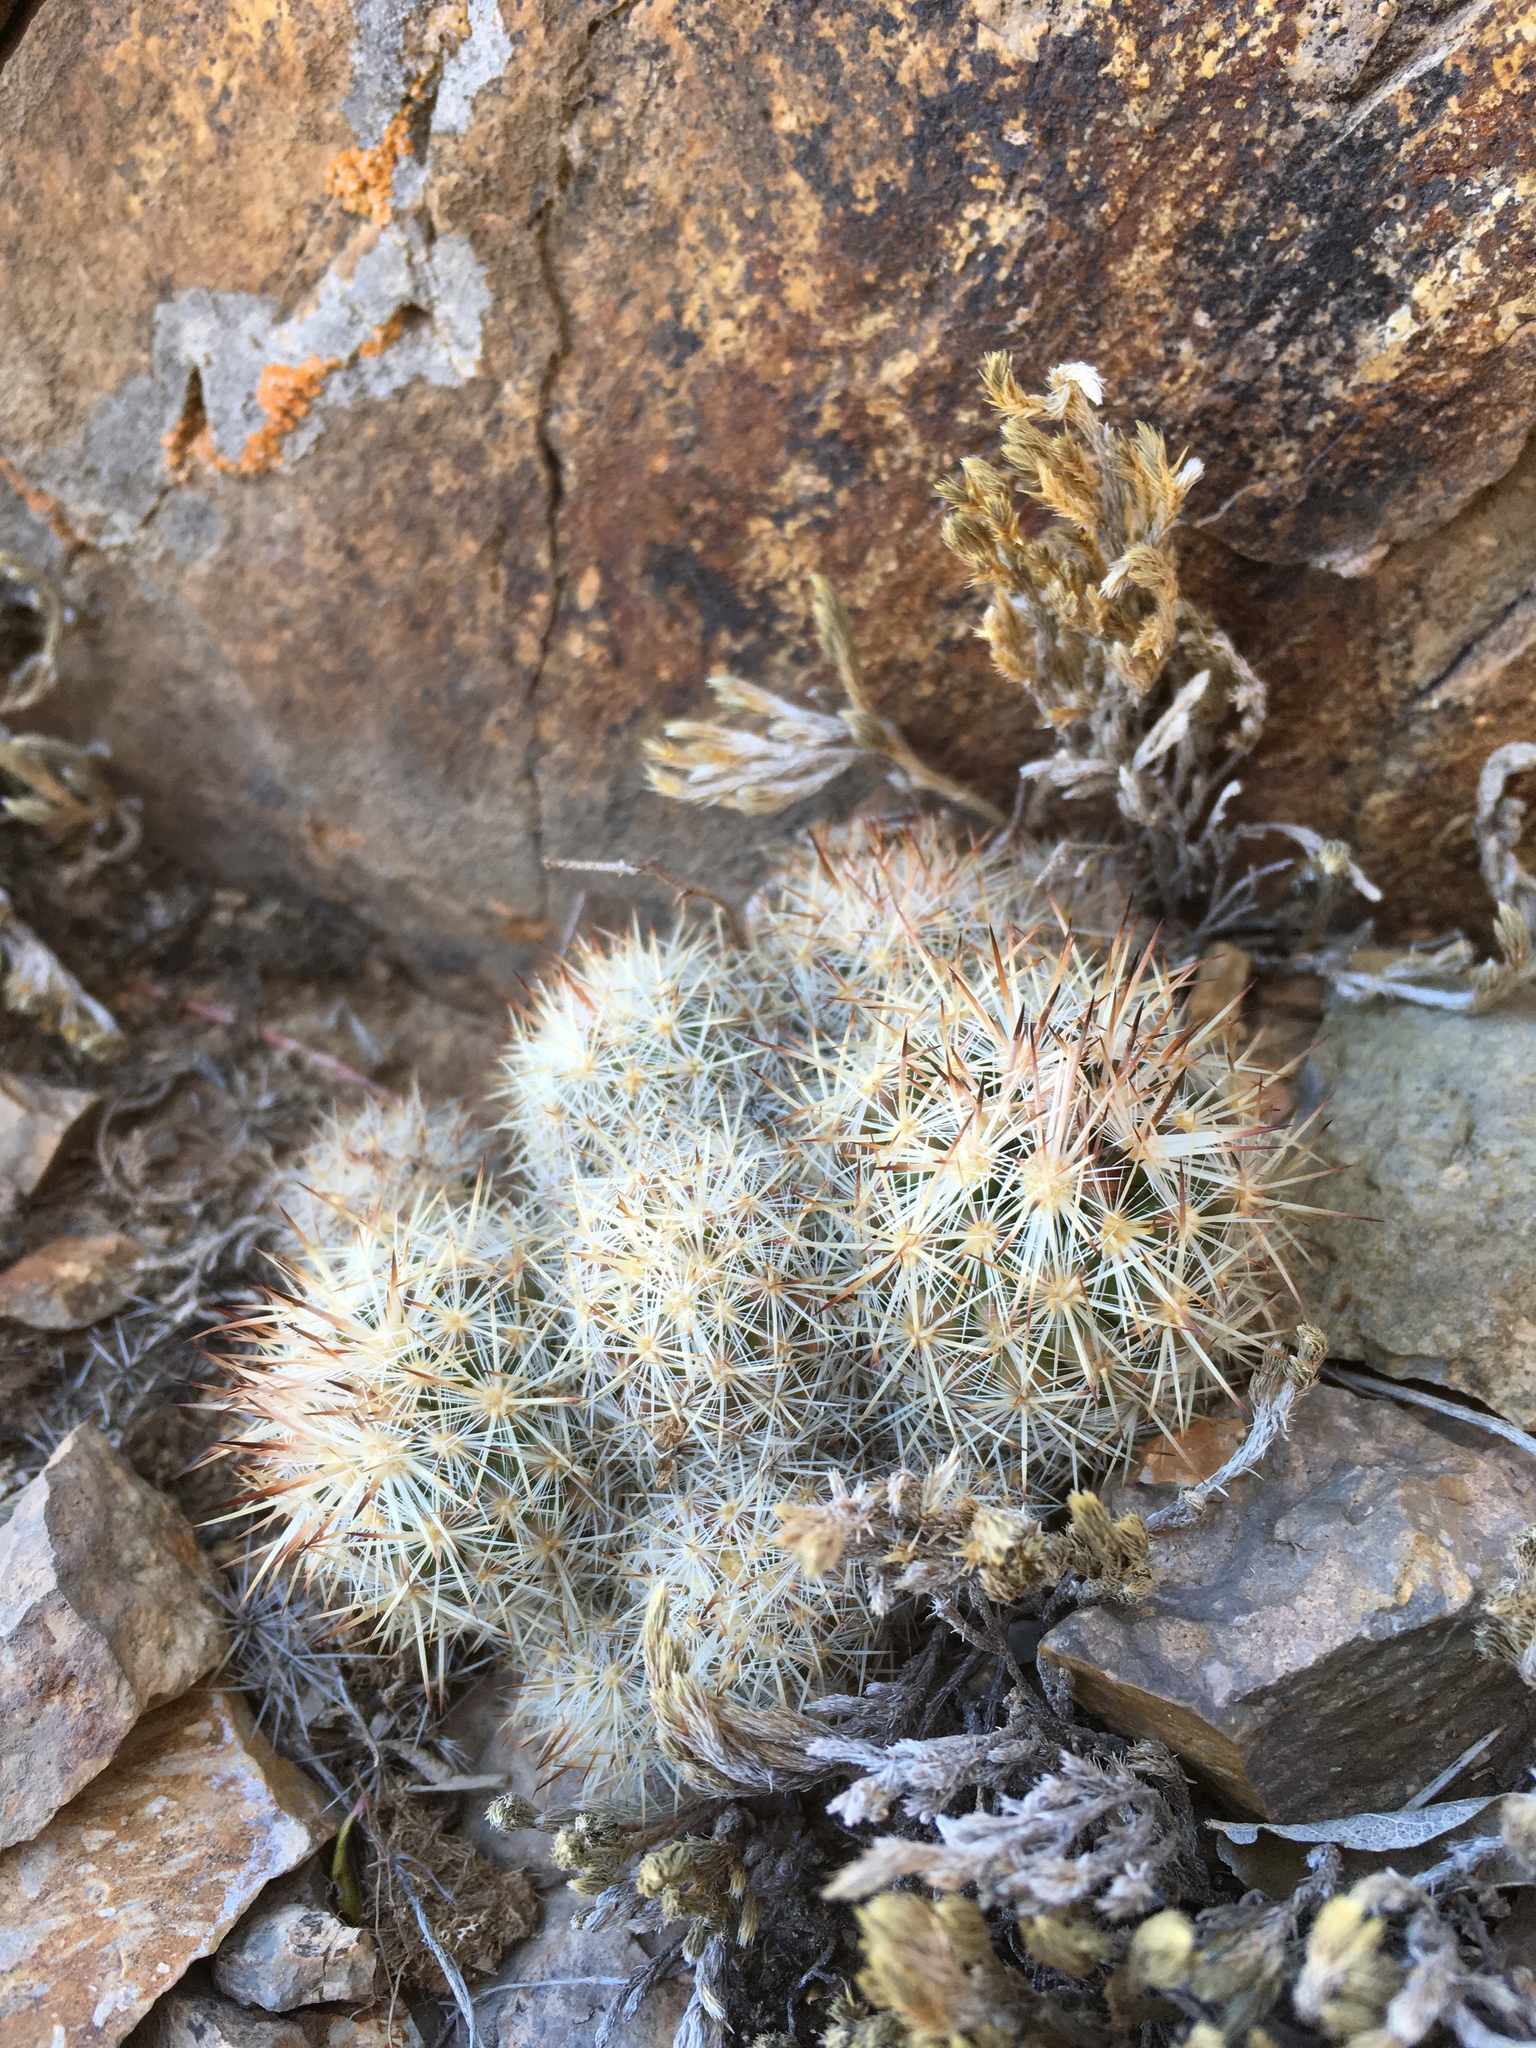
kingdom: Plantae
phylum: Tracheophyta
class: Magnoliopsida
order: Caryophyllales
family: Cactaceae
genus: Pelecyphora
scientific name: Pelecyphora sneedii
